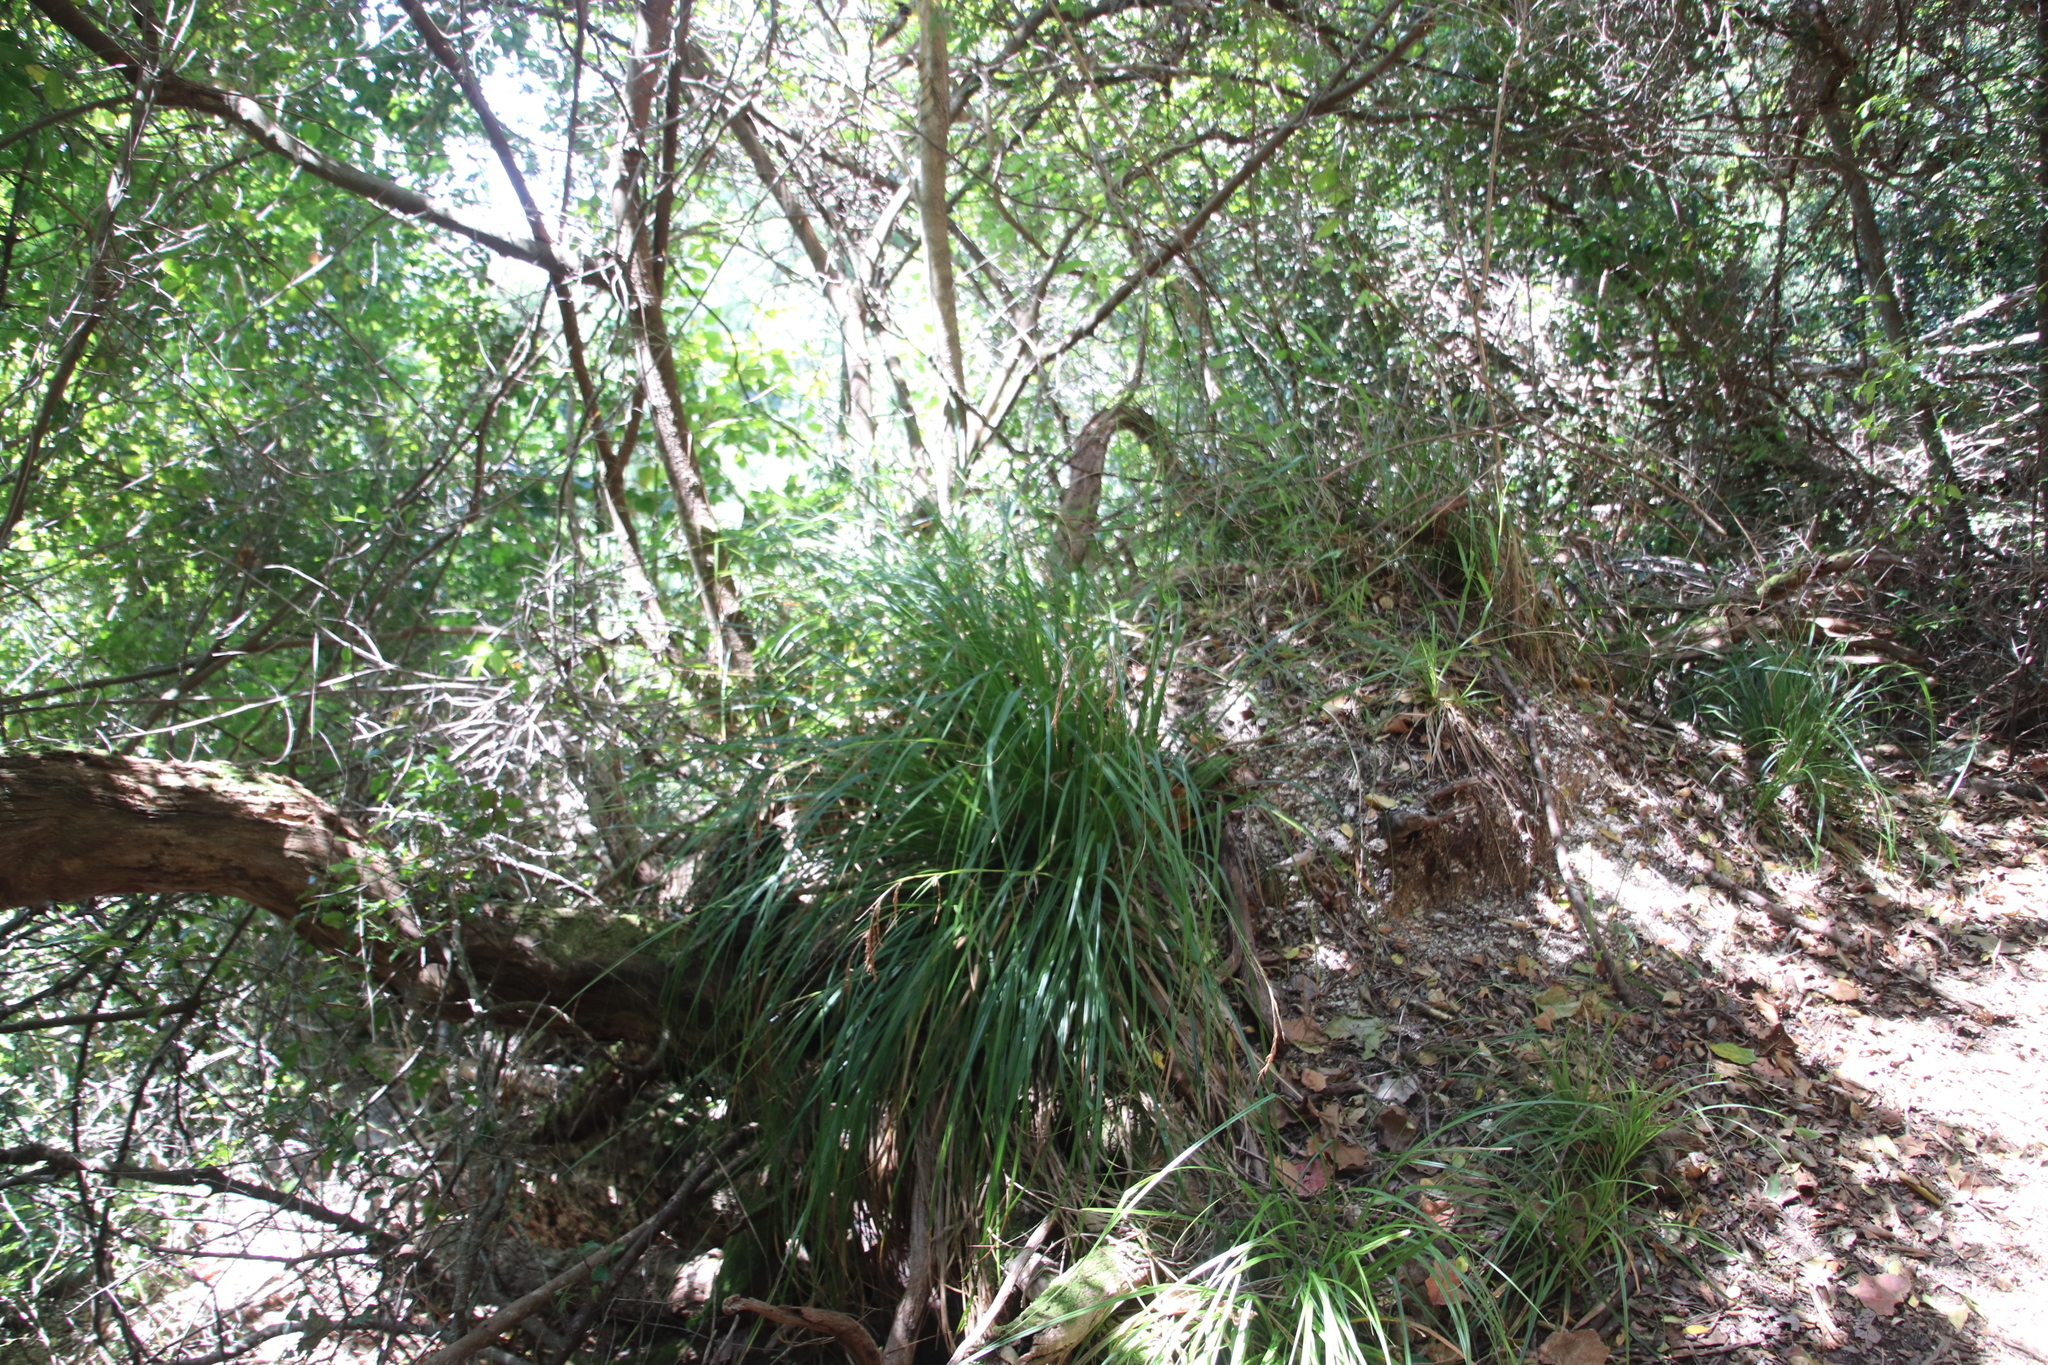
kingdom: Plantae
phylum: Tracheophyta
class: Liliopsida
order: Poales
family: Cyperaceae
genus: Carex
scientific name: Carex lancea
